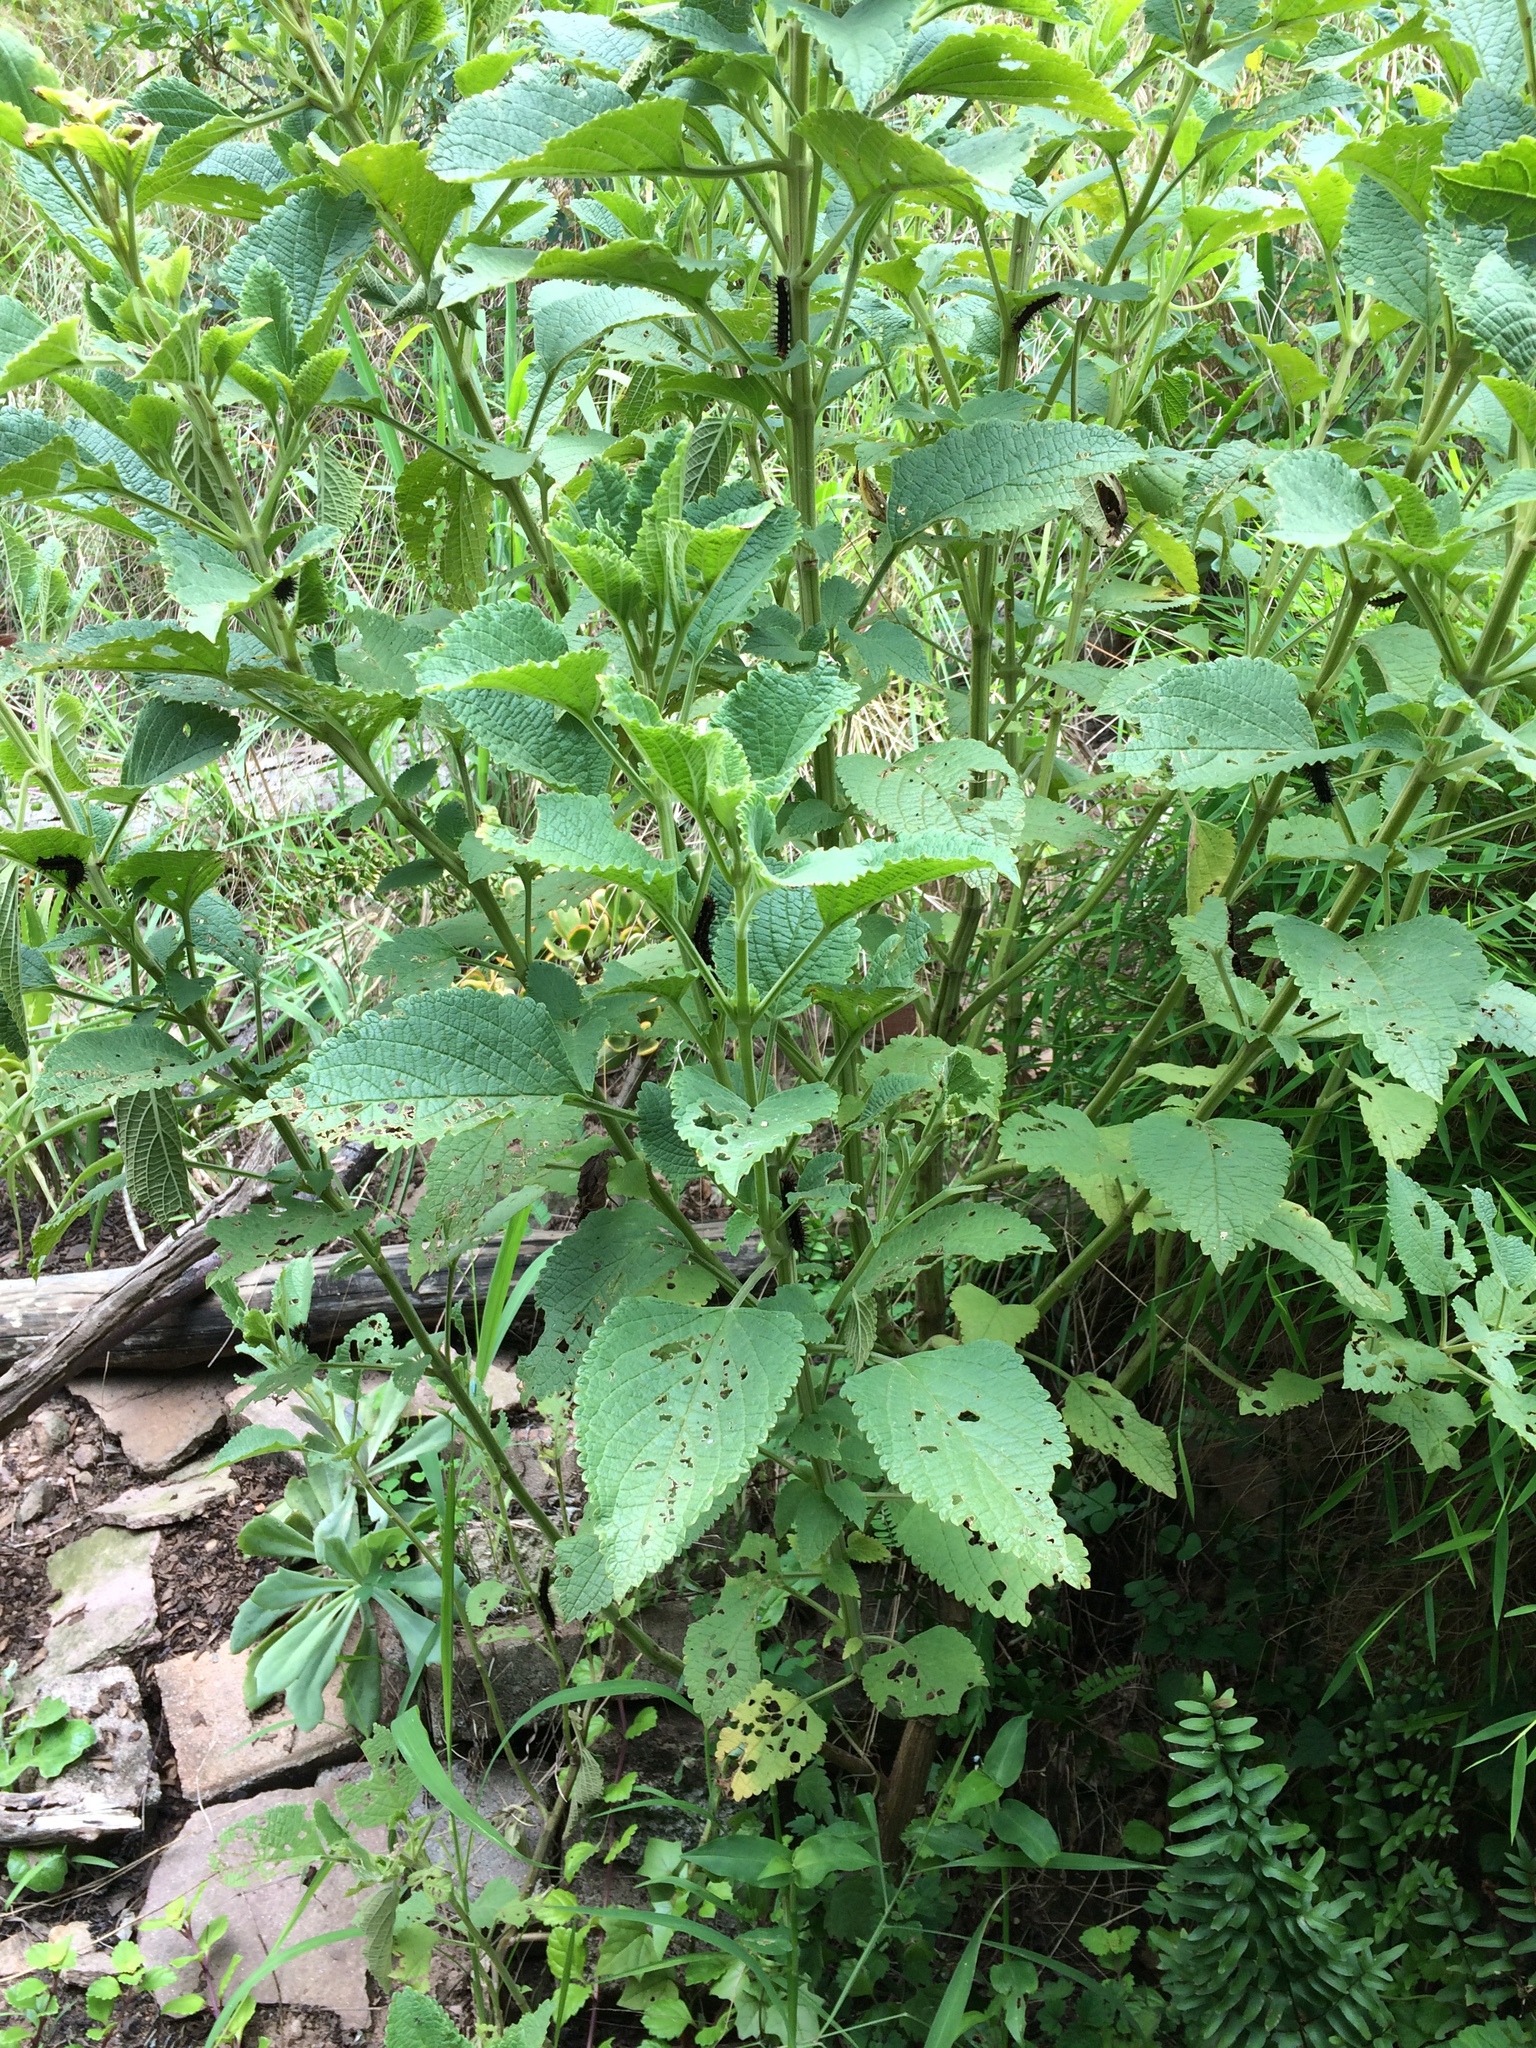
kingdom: Animalia
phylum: Arthropoda
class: Insecta
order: Lepidoptera
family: Nymphalidae
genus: Precis
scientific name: Precis octavia
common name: Gaudy commodore
